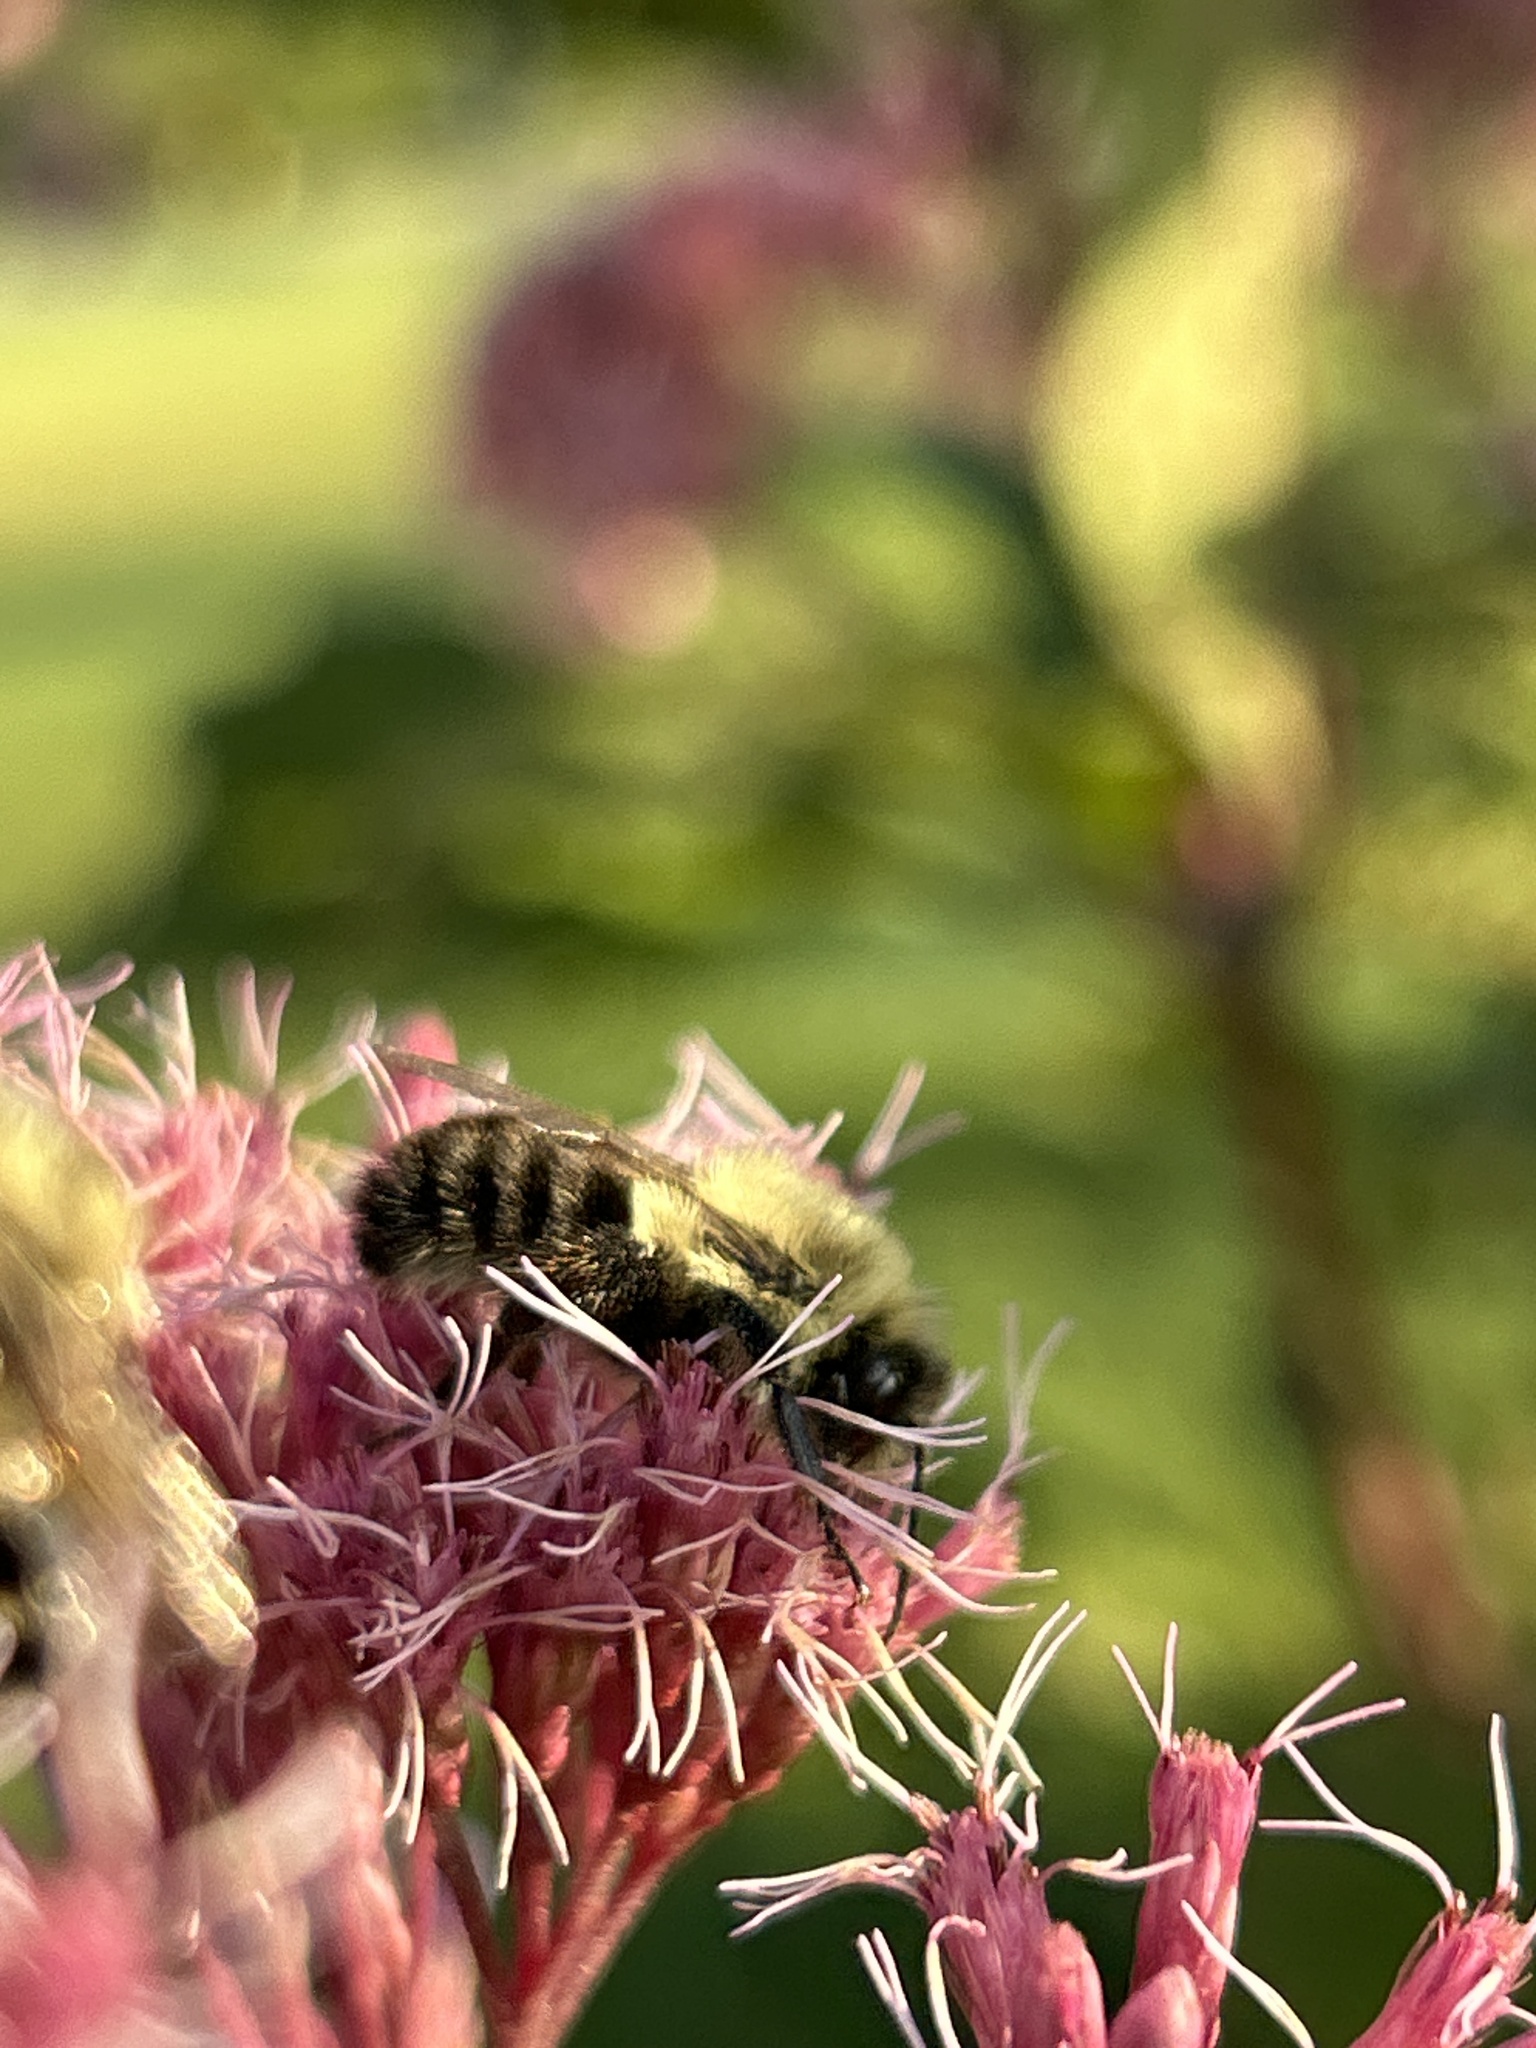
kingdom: Animalia
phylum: Arthropoda
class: Insecta
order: Hymenoptera
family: Apidae
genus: Bombus
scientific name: Bombus impatiens
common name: Common eastern bumble bee
